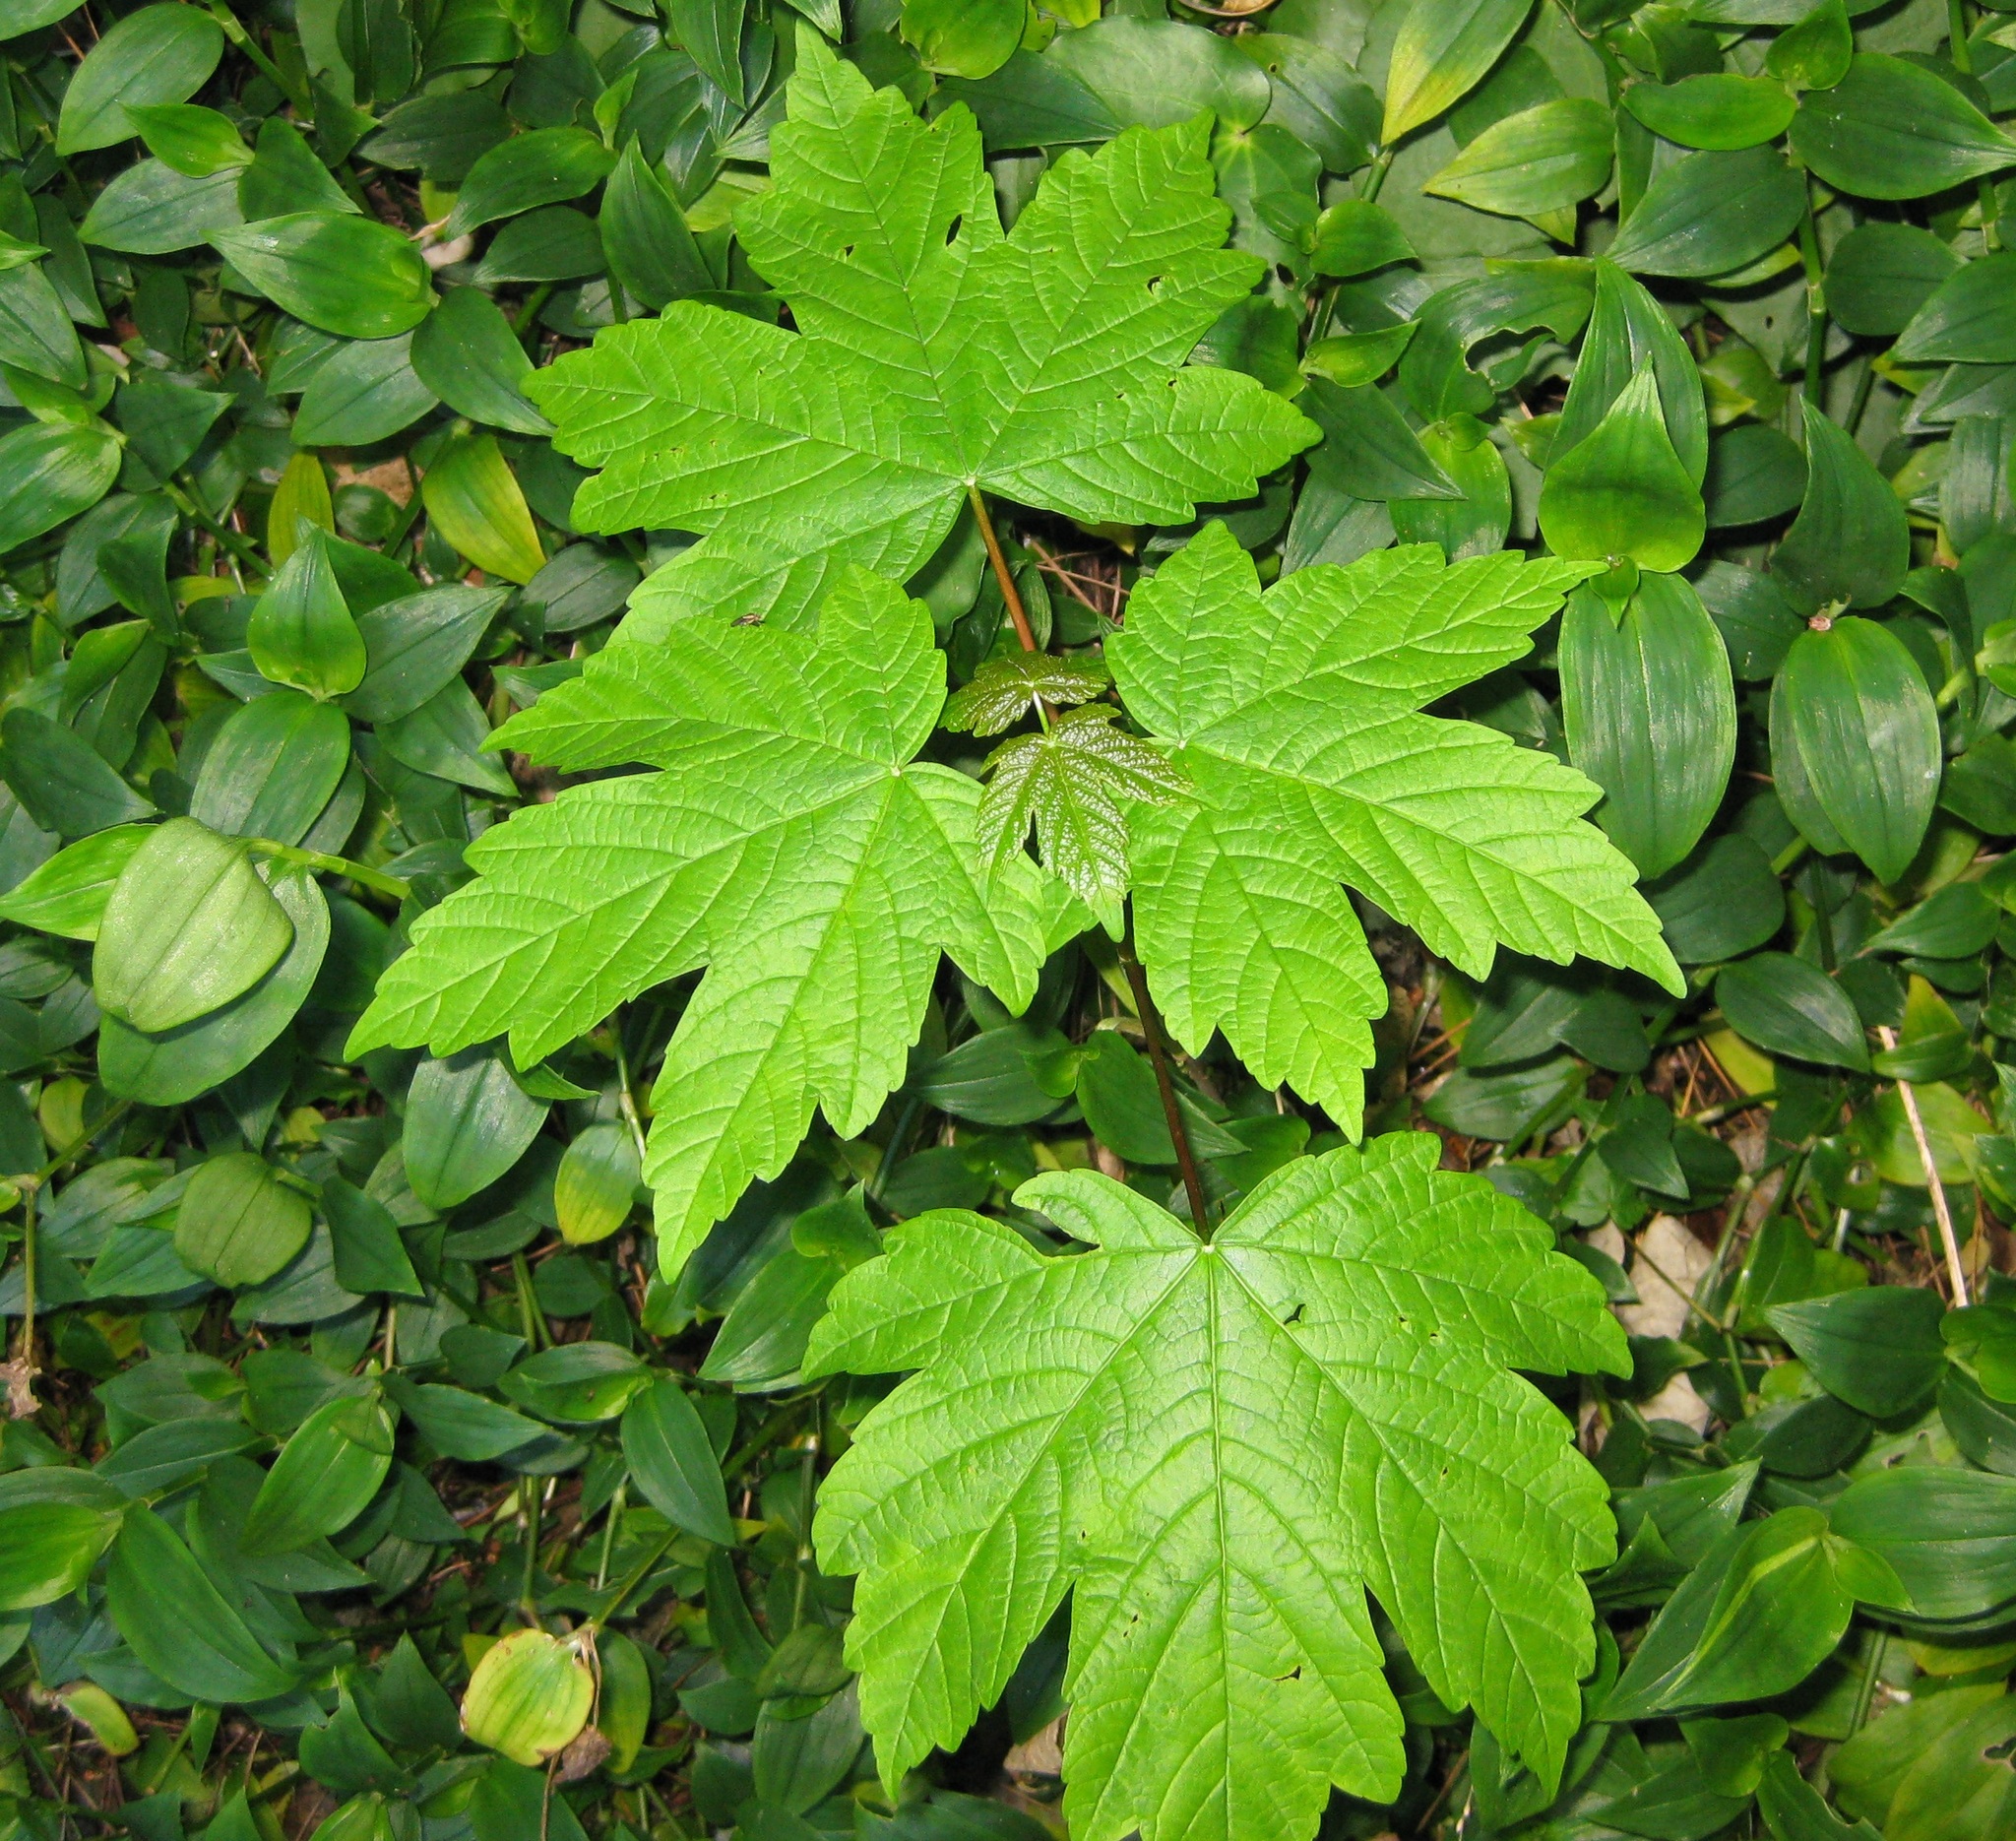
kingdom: Plantae
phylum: Tracheophyta
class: Magnoliopsida
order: Sapindales
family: Sapindaceae
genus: Acer
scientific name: Acer pseudoplatanus
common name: Sycamore
